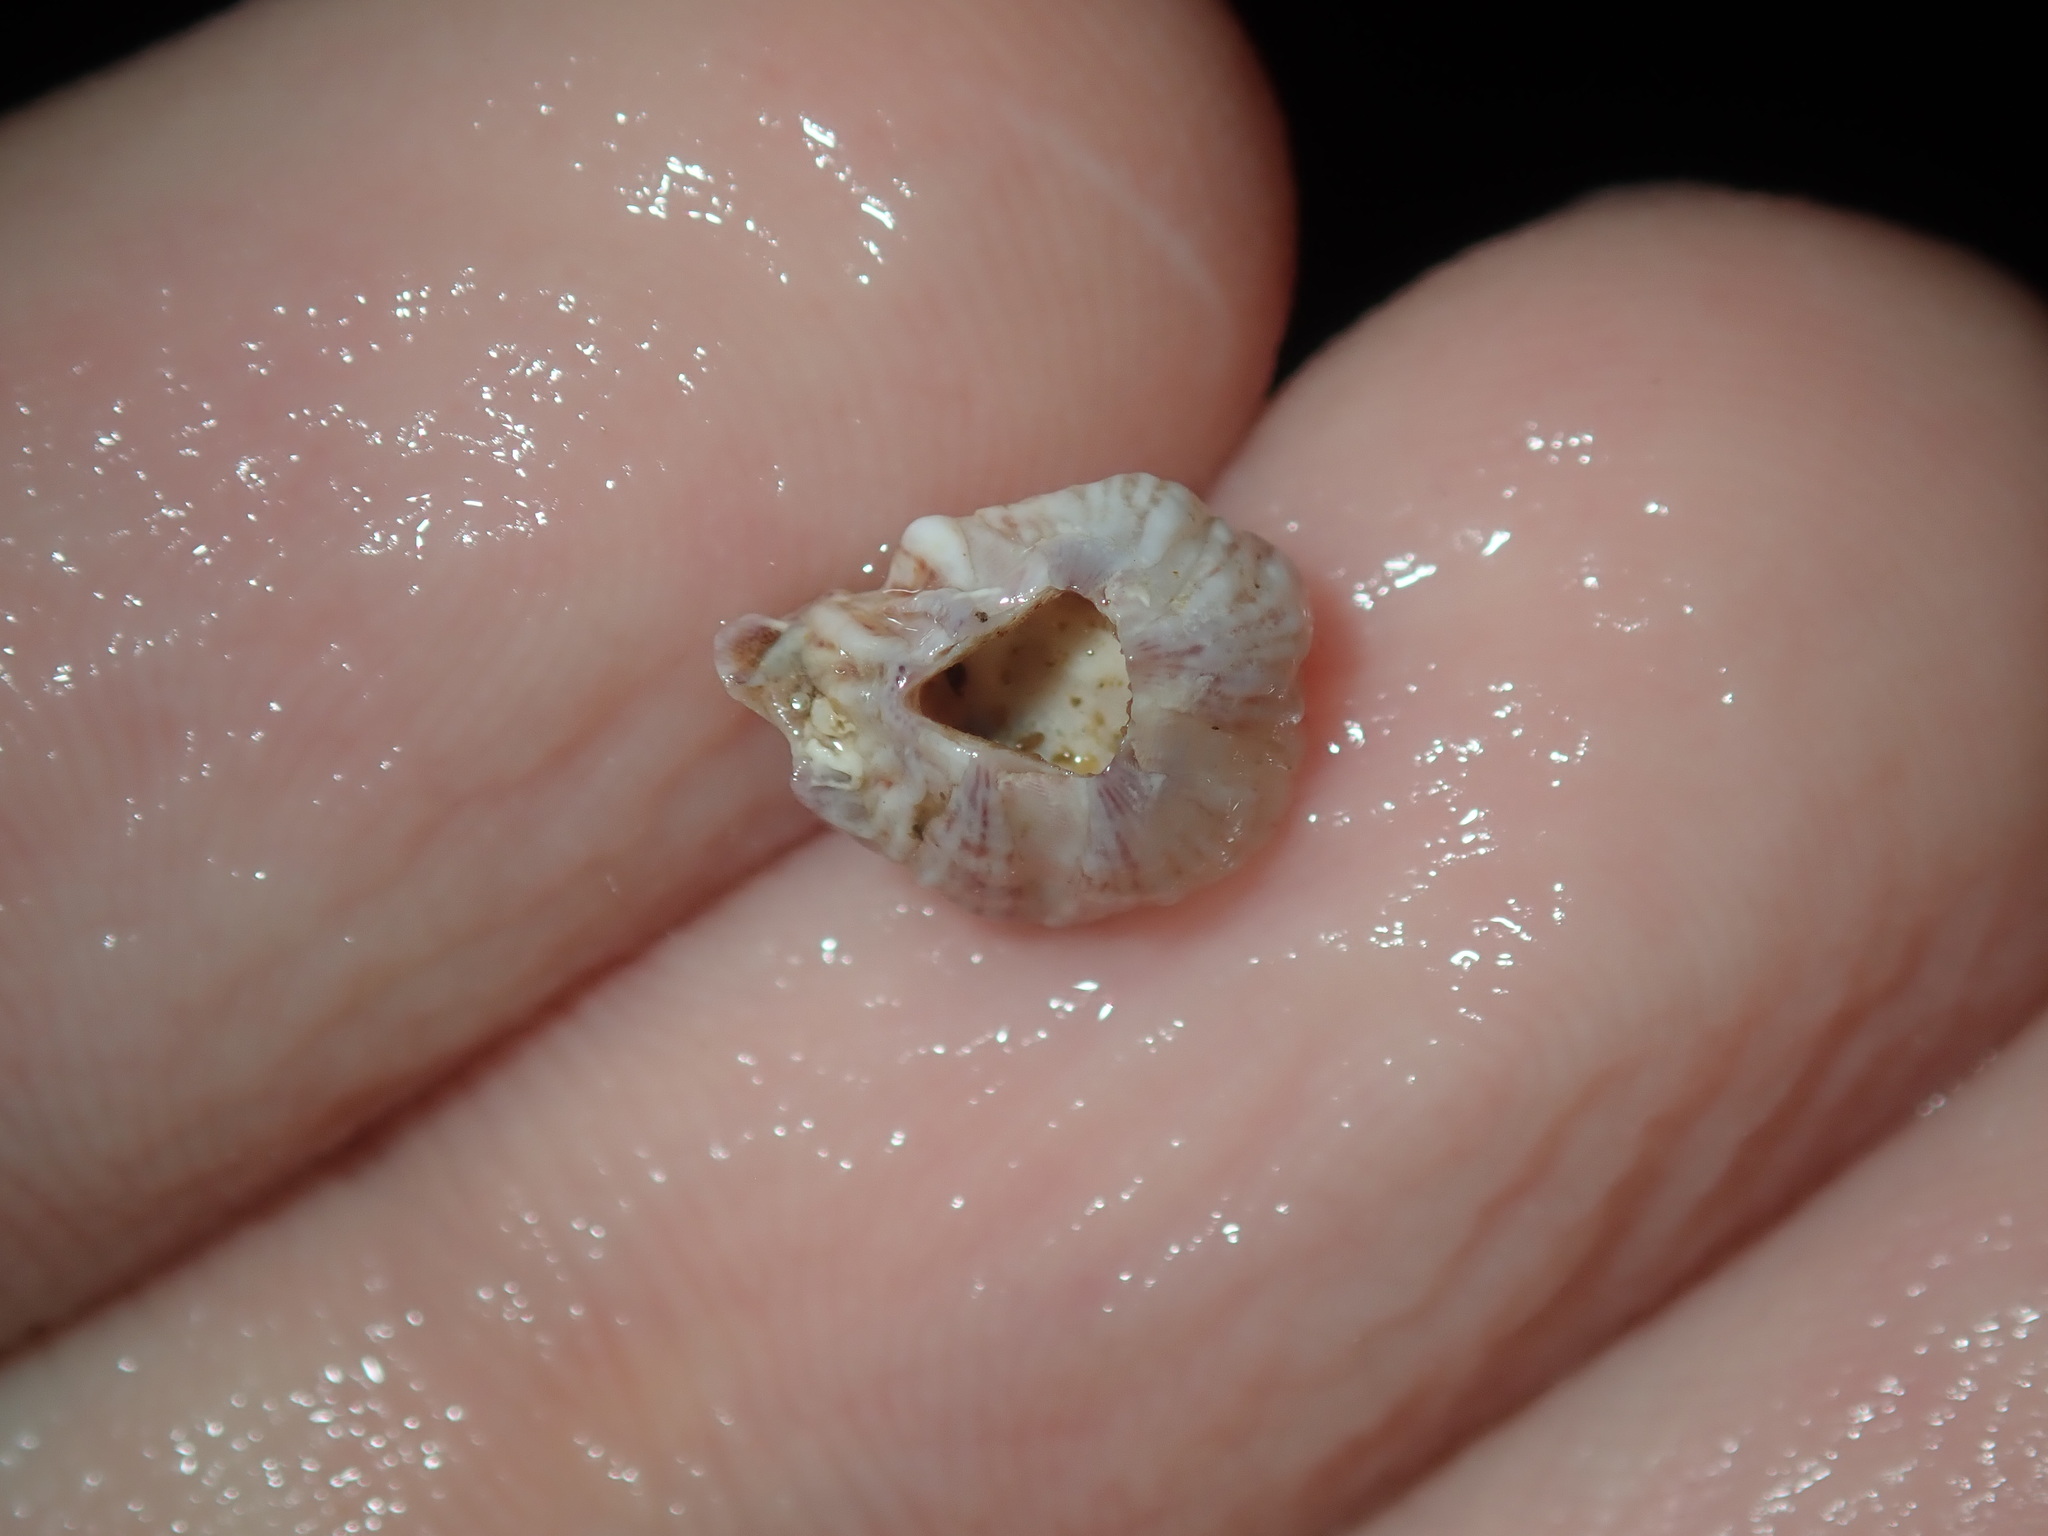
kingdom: Animalia
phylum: Arthropoda
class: Maxillopoda
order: Sessilia
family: Balanidae
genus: Balanus
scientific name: Balanus trigonus
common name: Triangle barnacle
